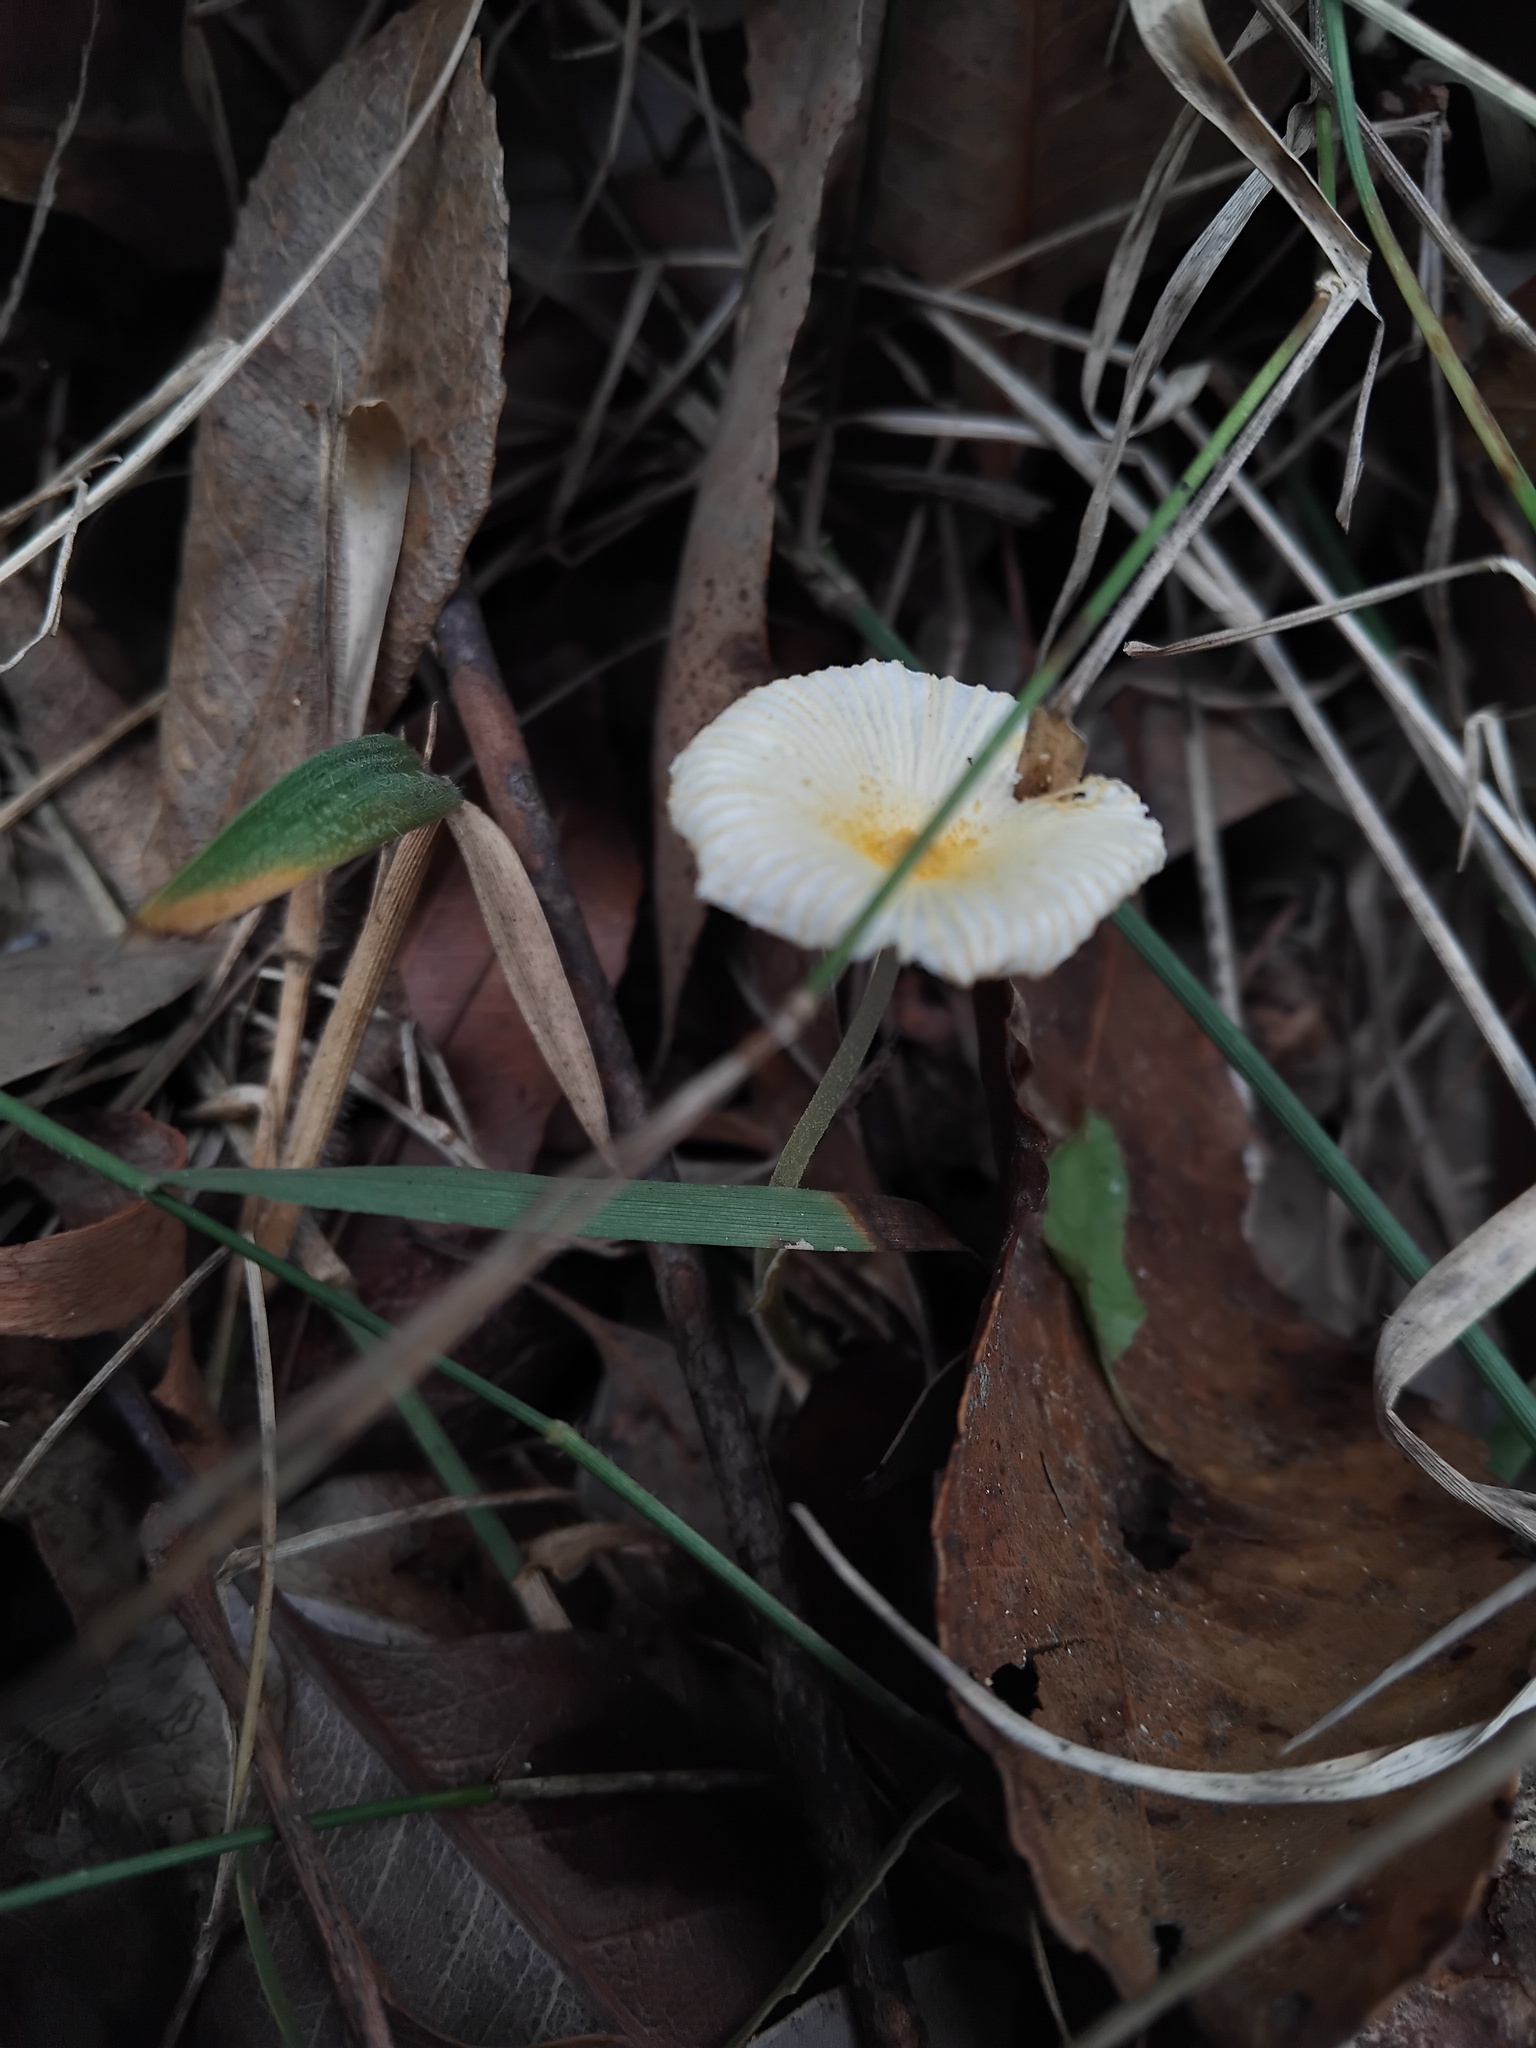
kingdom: Fungi
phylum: Basidiomycota
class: Agaricomycetes
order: Agaricales
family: Agaricaceae
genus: Leucocoprinus
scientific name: Leucocoprinus fragilissimus
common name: Fragile dapperling
